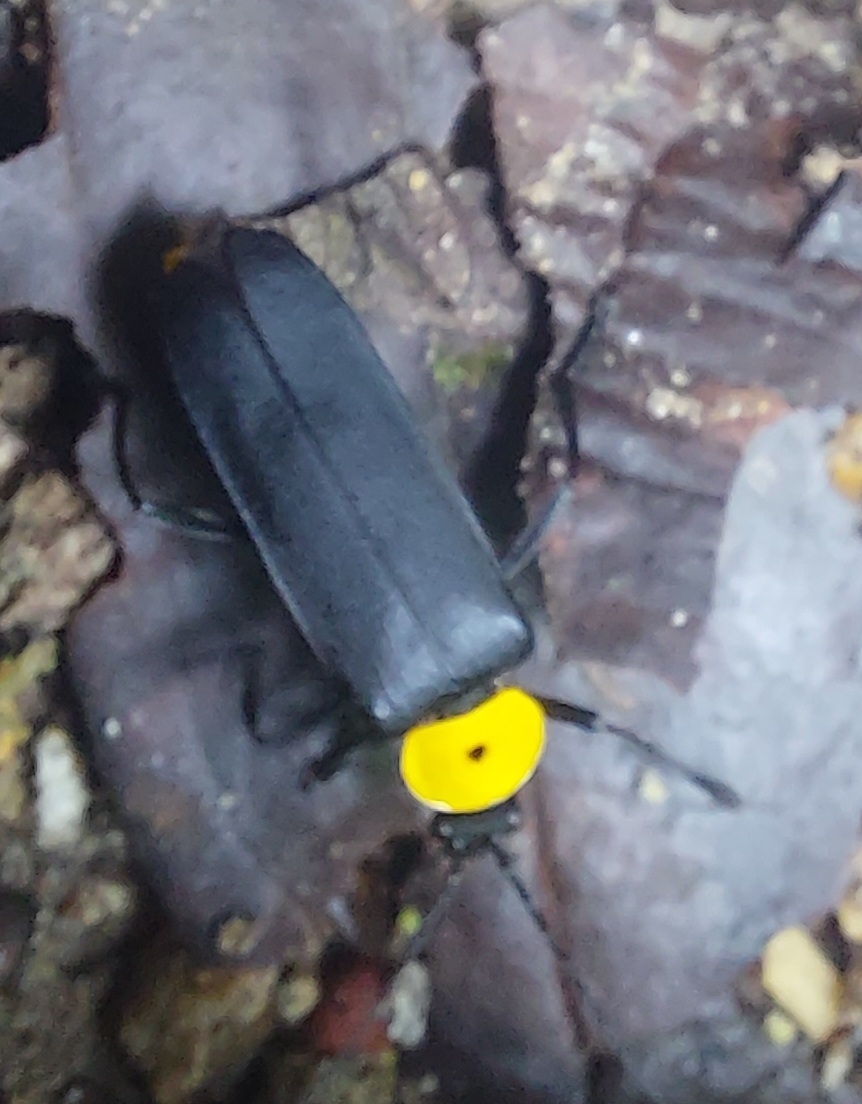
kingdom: Animalia
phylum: Arthropoda
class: Insecta
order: Coleoptera
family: Cantharidae
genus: Chauliognathus
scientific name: Chauliognathus
